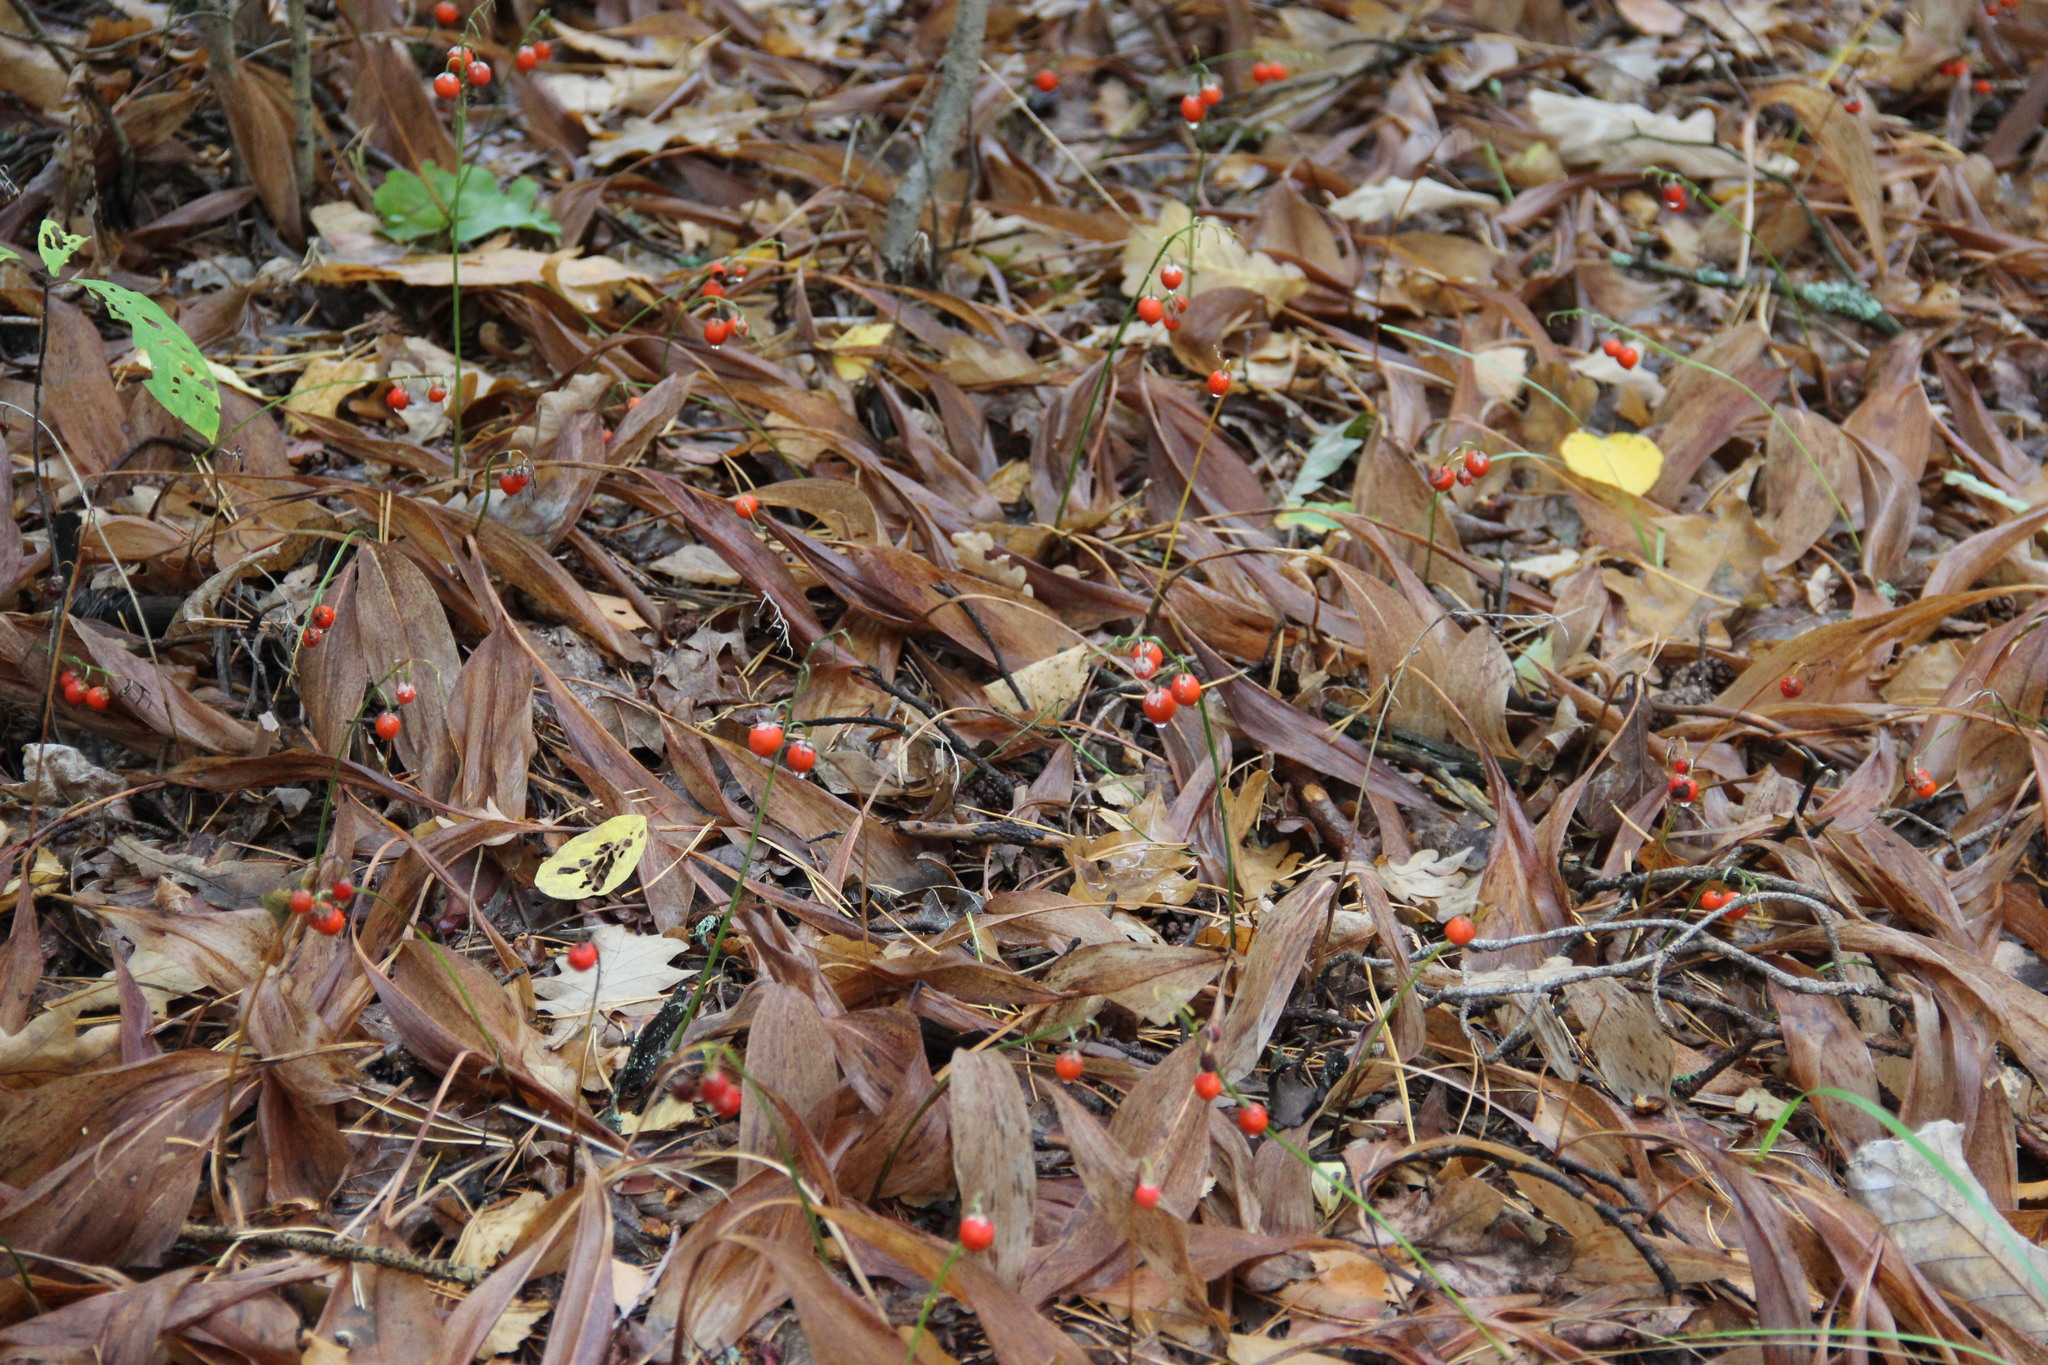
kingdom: Plantae
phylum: Tracheophyta
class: Liliopsida
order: Asparagales
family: Asparagaceae
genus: Convallaria
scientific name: Convallaria majalis
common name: Lily-of-the-valley
